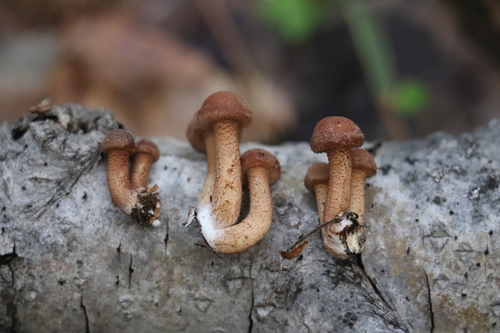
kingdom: Fungi
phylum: Basidiomycota
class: Agaricomycetes
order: Agaricales
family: Physalacriaceae
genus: Armillaria
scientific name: Armillaria mellea
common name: Honey fungus
